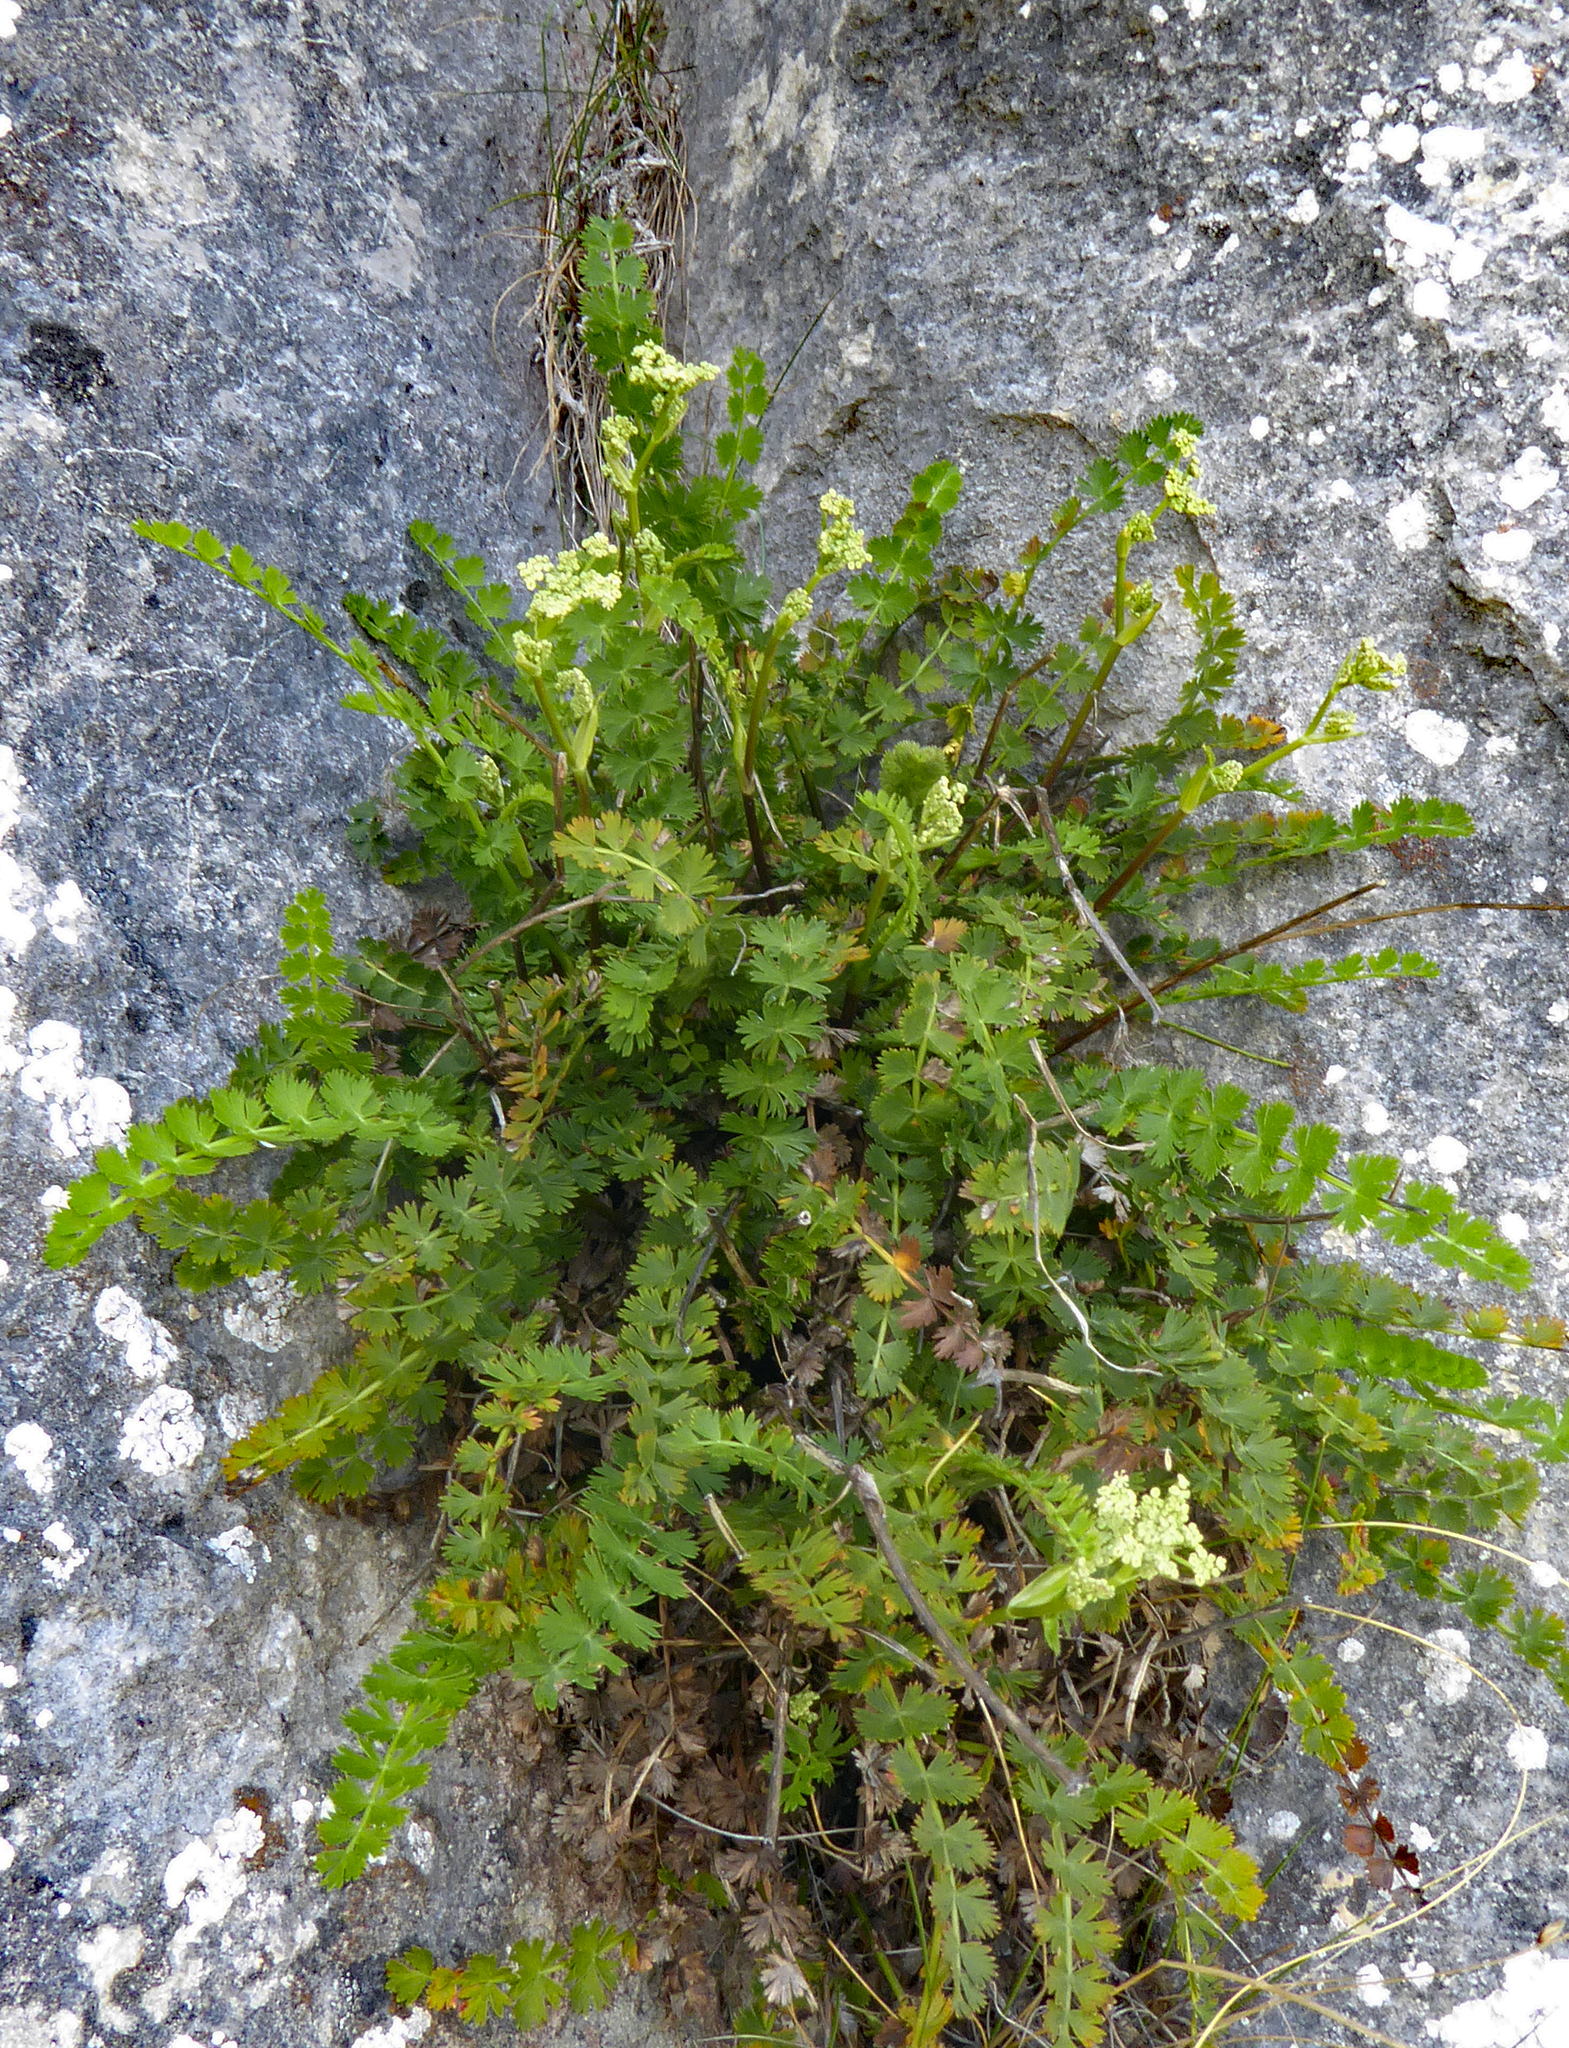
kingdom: Plantae
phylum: Tracheophyta
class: Magnoliopsida
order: Apiales
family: Apiaceae
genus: Anisotome
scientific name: Anisotome aromatica
